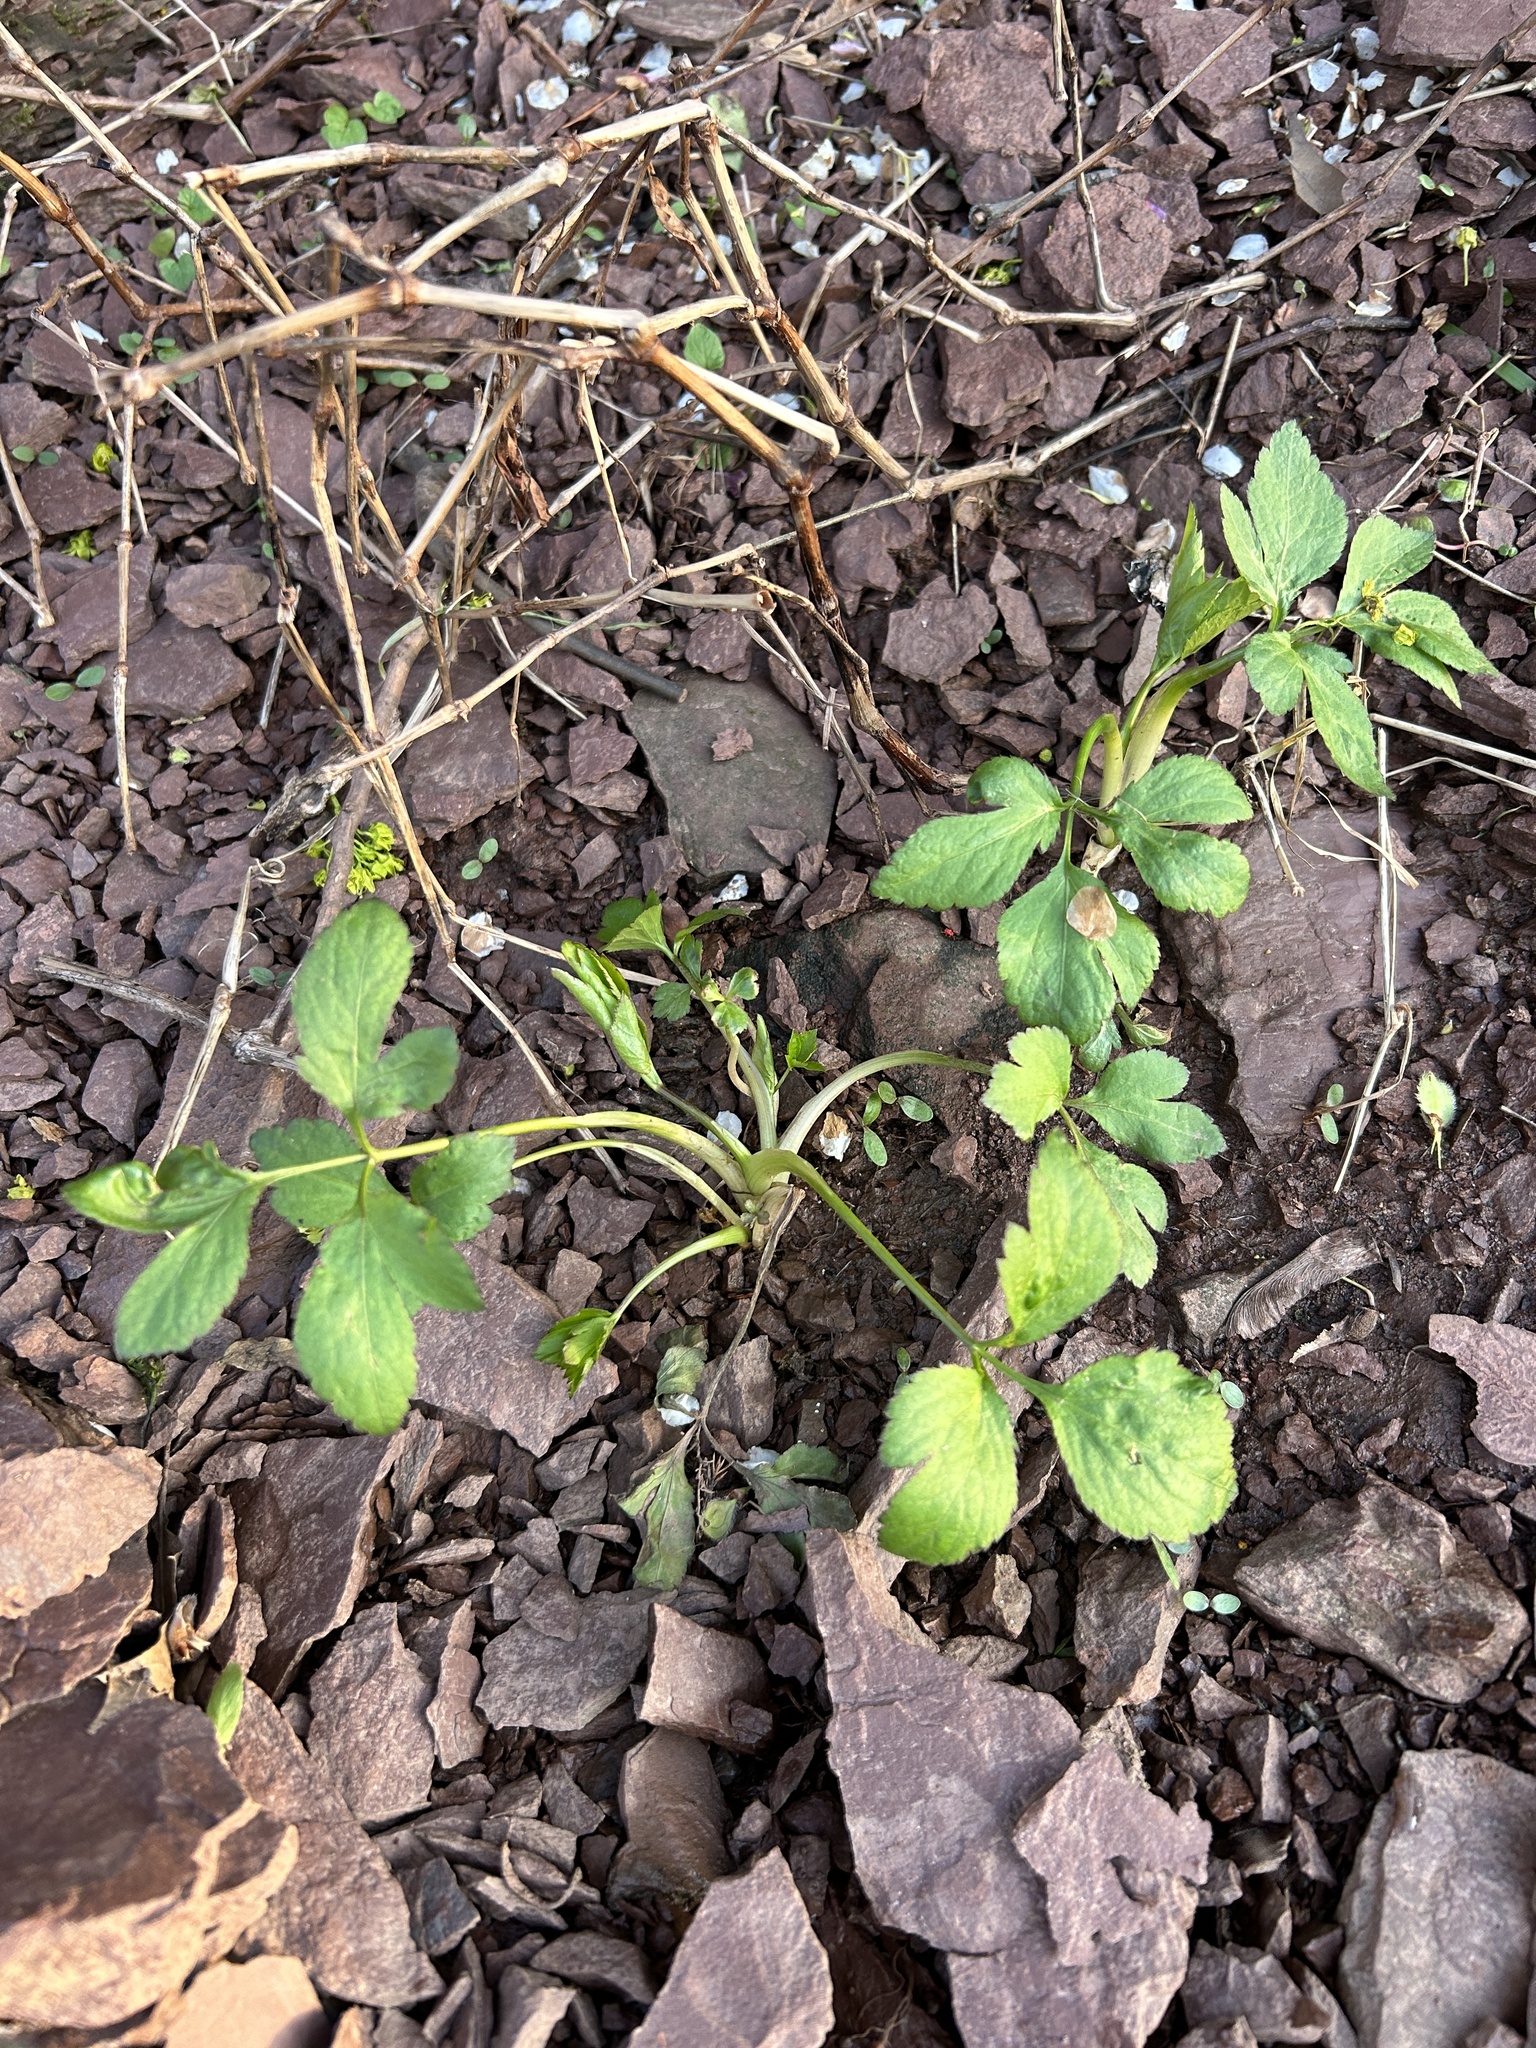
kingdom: Plantae
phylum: Tracheophyta
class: Magnoliopsida
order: Apiales
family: Apiaceae
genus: Cryptotaenia
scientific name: Cryptotaenia canadensis
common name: Honewort
